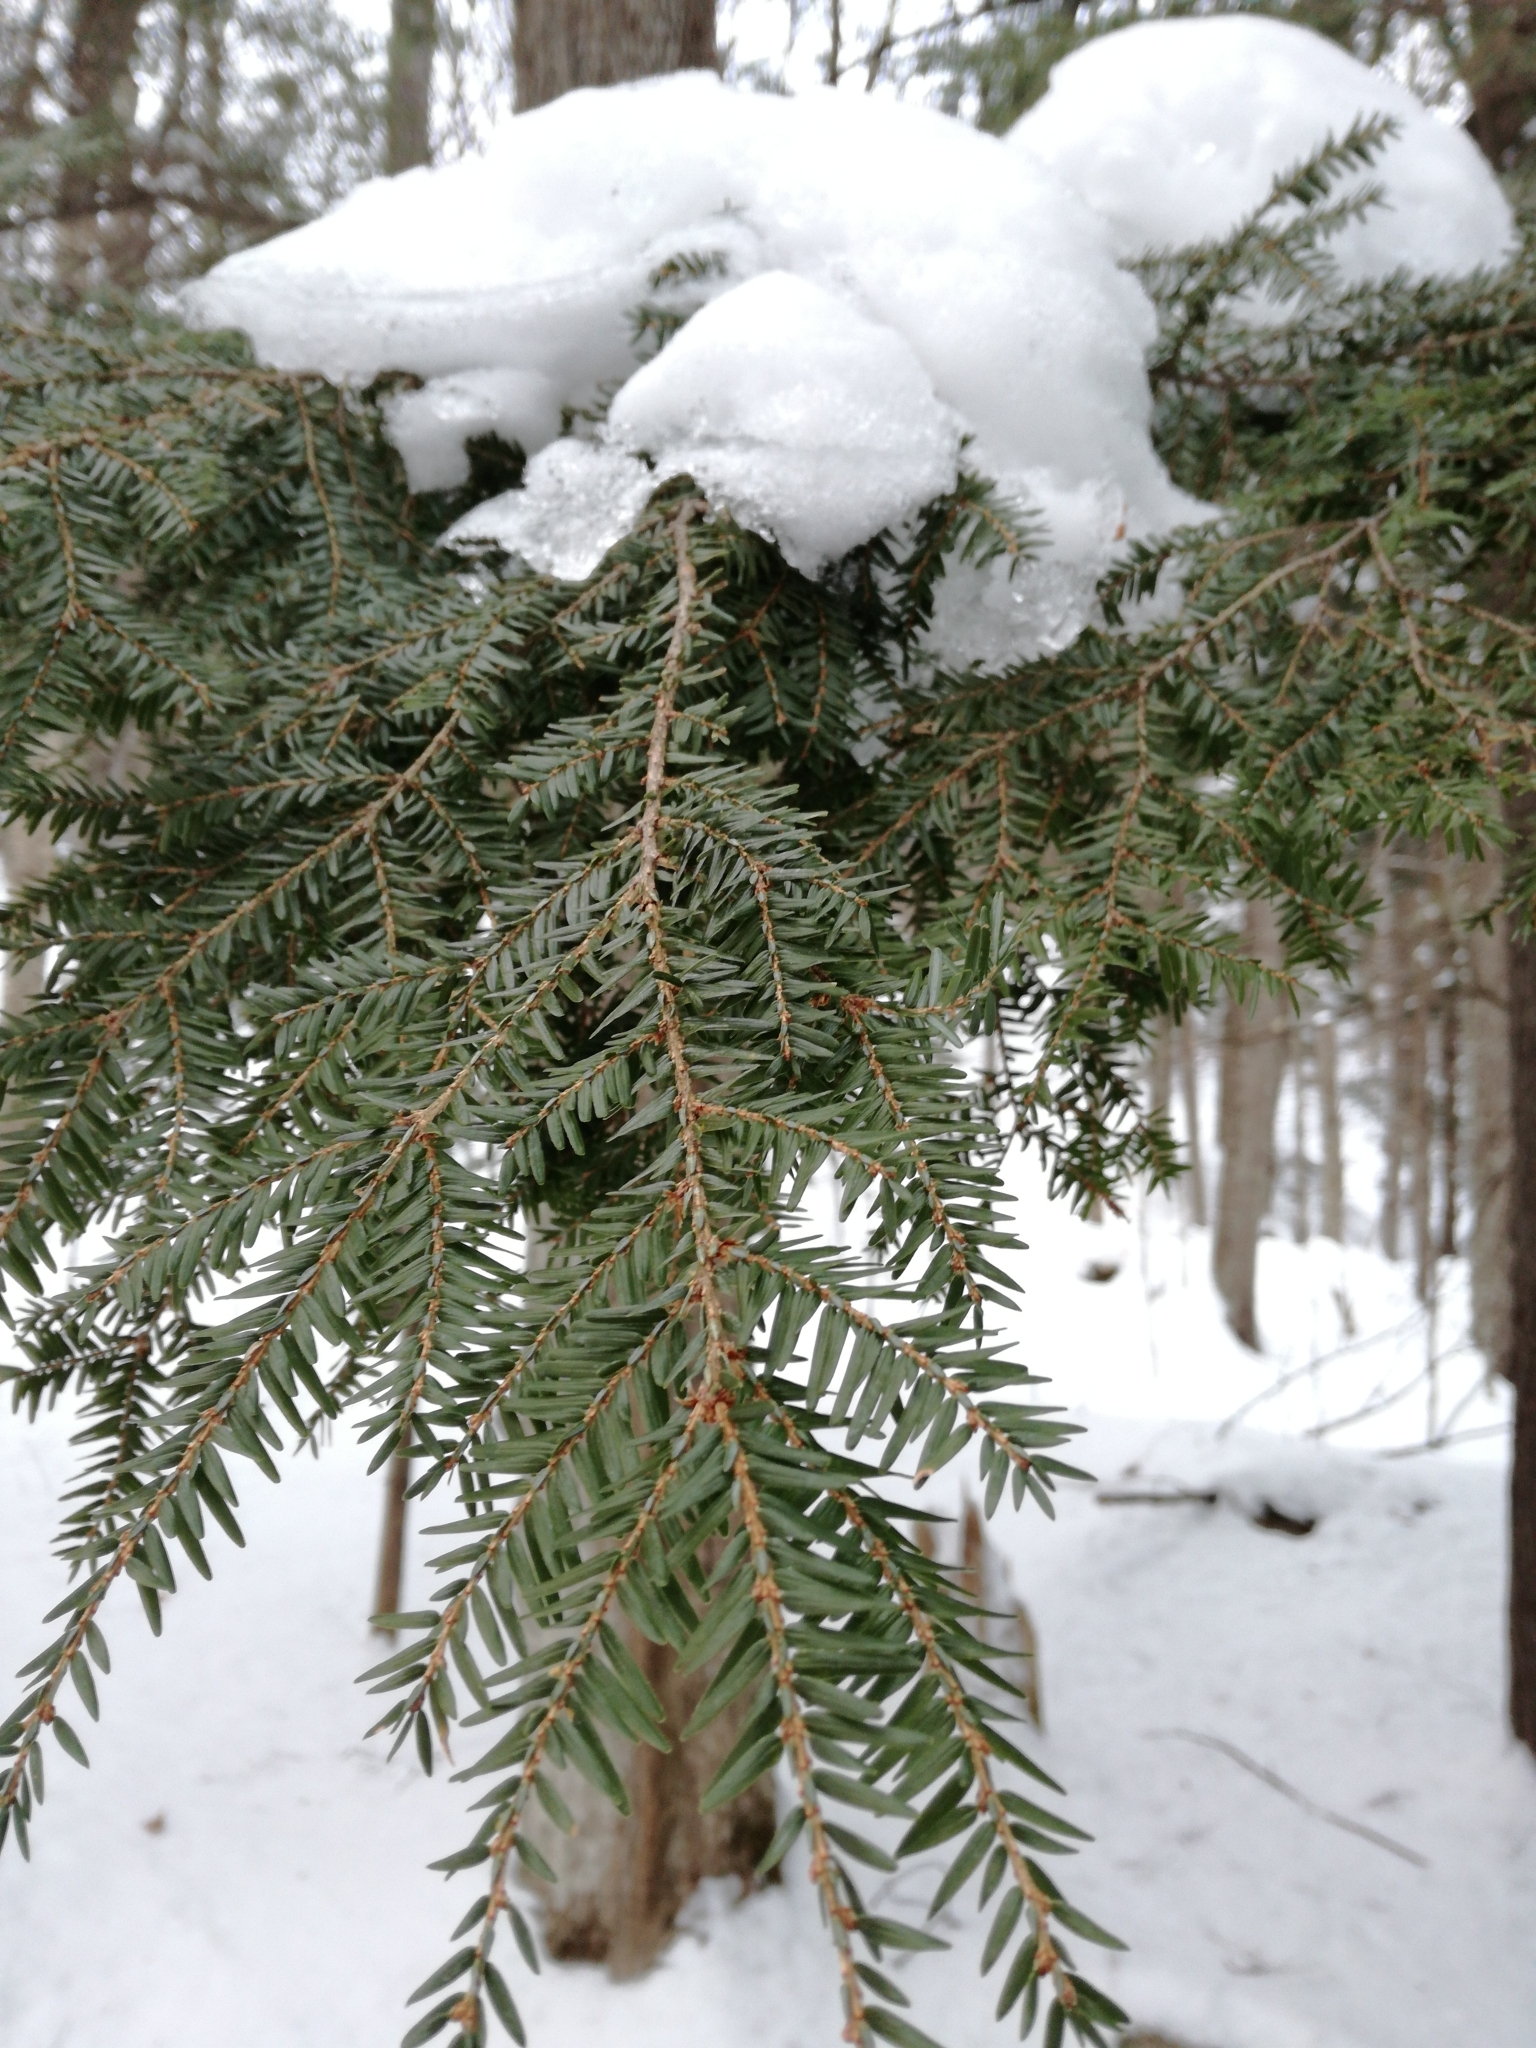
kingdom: Plantae
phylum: Tracheophyta
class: Pinopsida
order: Pinales
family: Pinaceae
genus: Tsuga
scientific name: Tsuga canadensis
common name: Eastern hemlock
